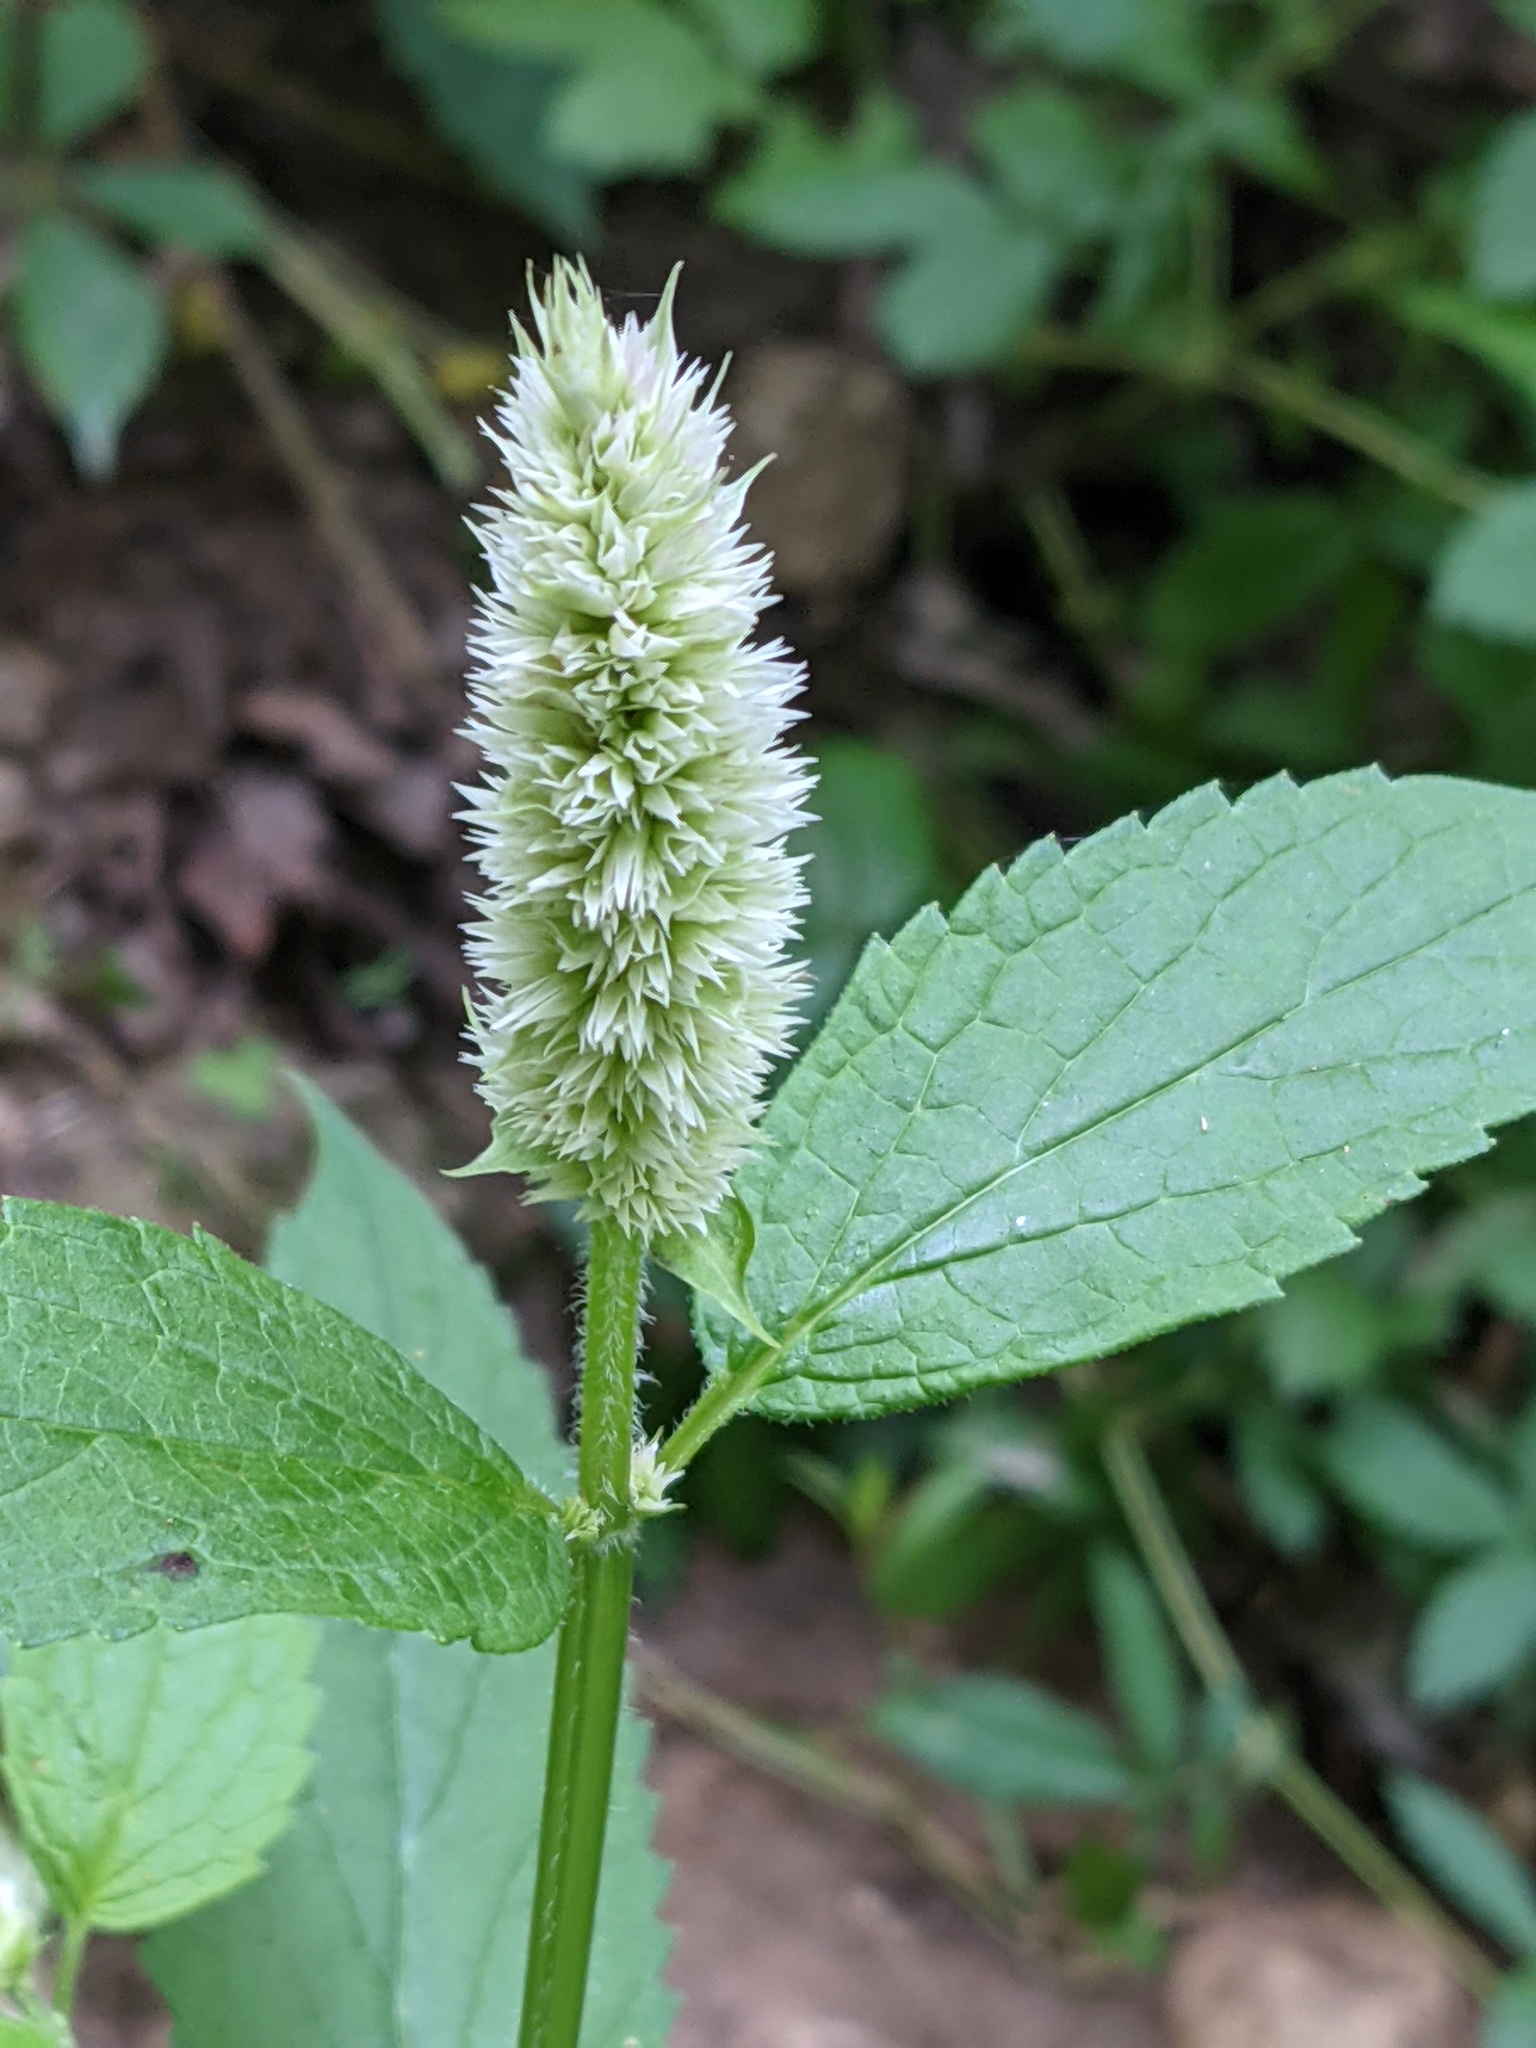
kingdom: Plantae
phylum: Tracheophyta
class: Magnoliopsida
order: Lamiales
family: Lamiaceae
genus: Agastache
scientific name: Agastache scrophulariifolia
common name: Figwort giant hyssop
